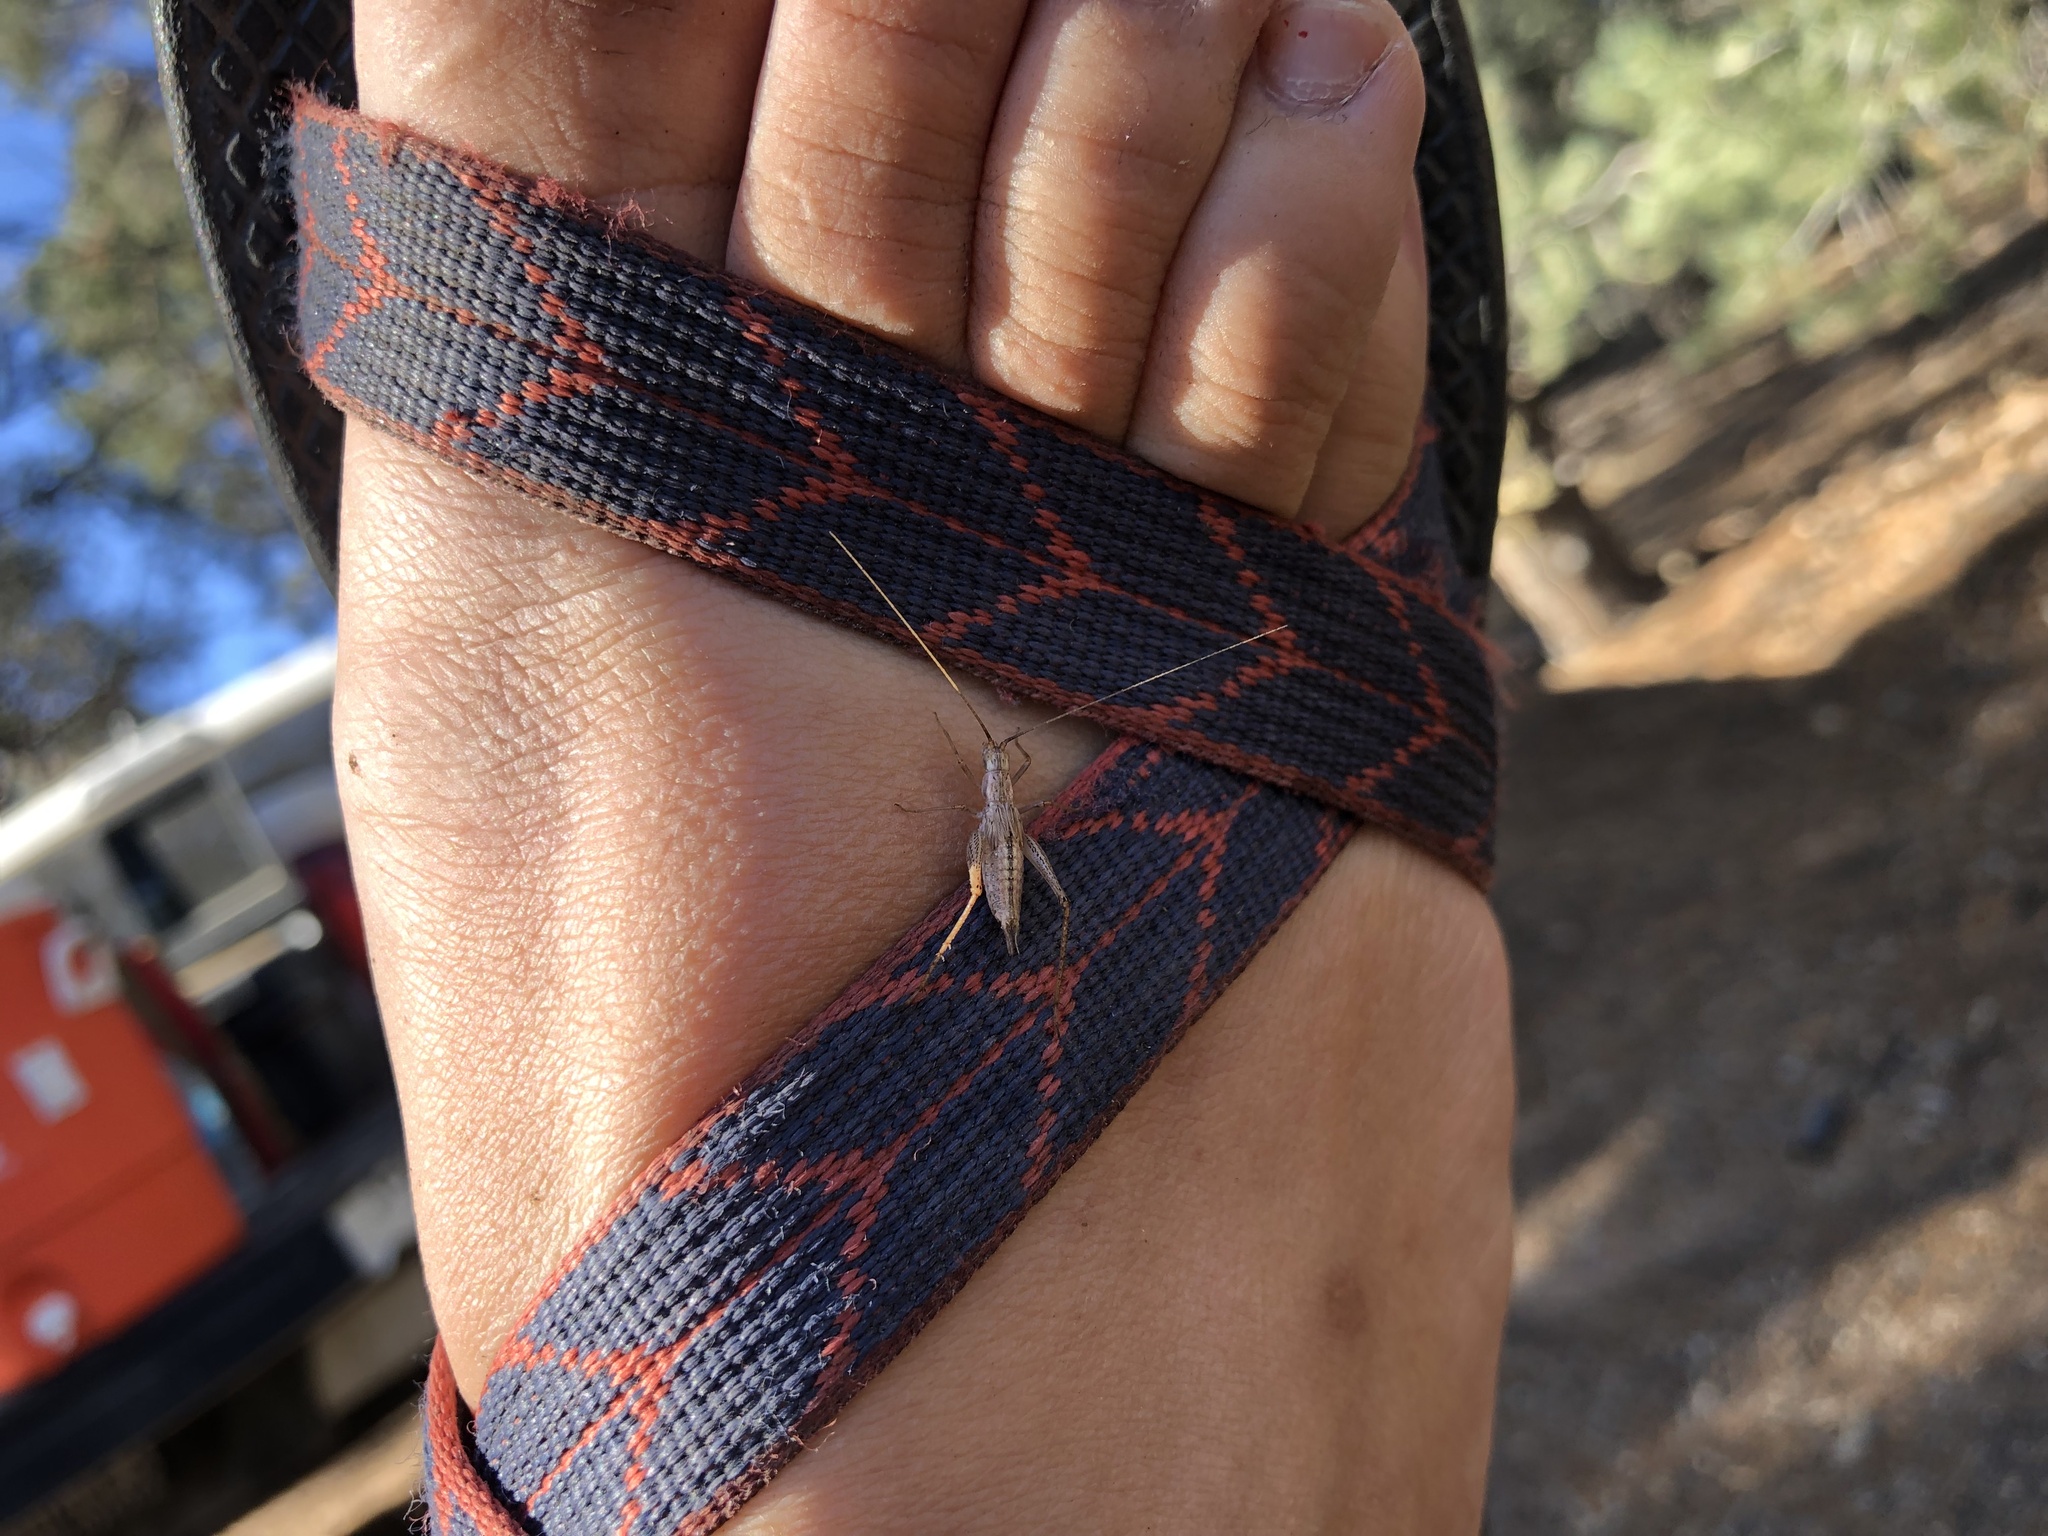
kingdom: Animalia
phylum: Arthropoda
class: Insecta
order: Orthoptera
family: Gryllidae
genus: Oecanthus
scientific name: Oecanthus californicus
